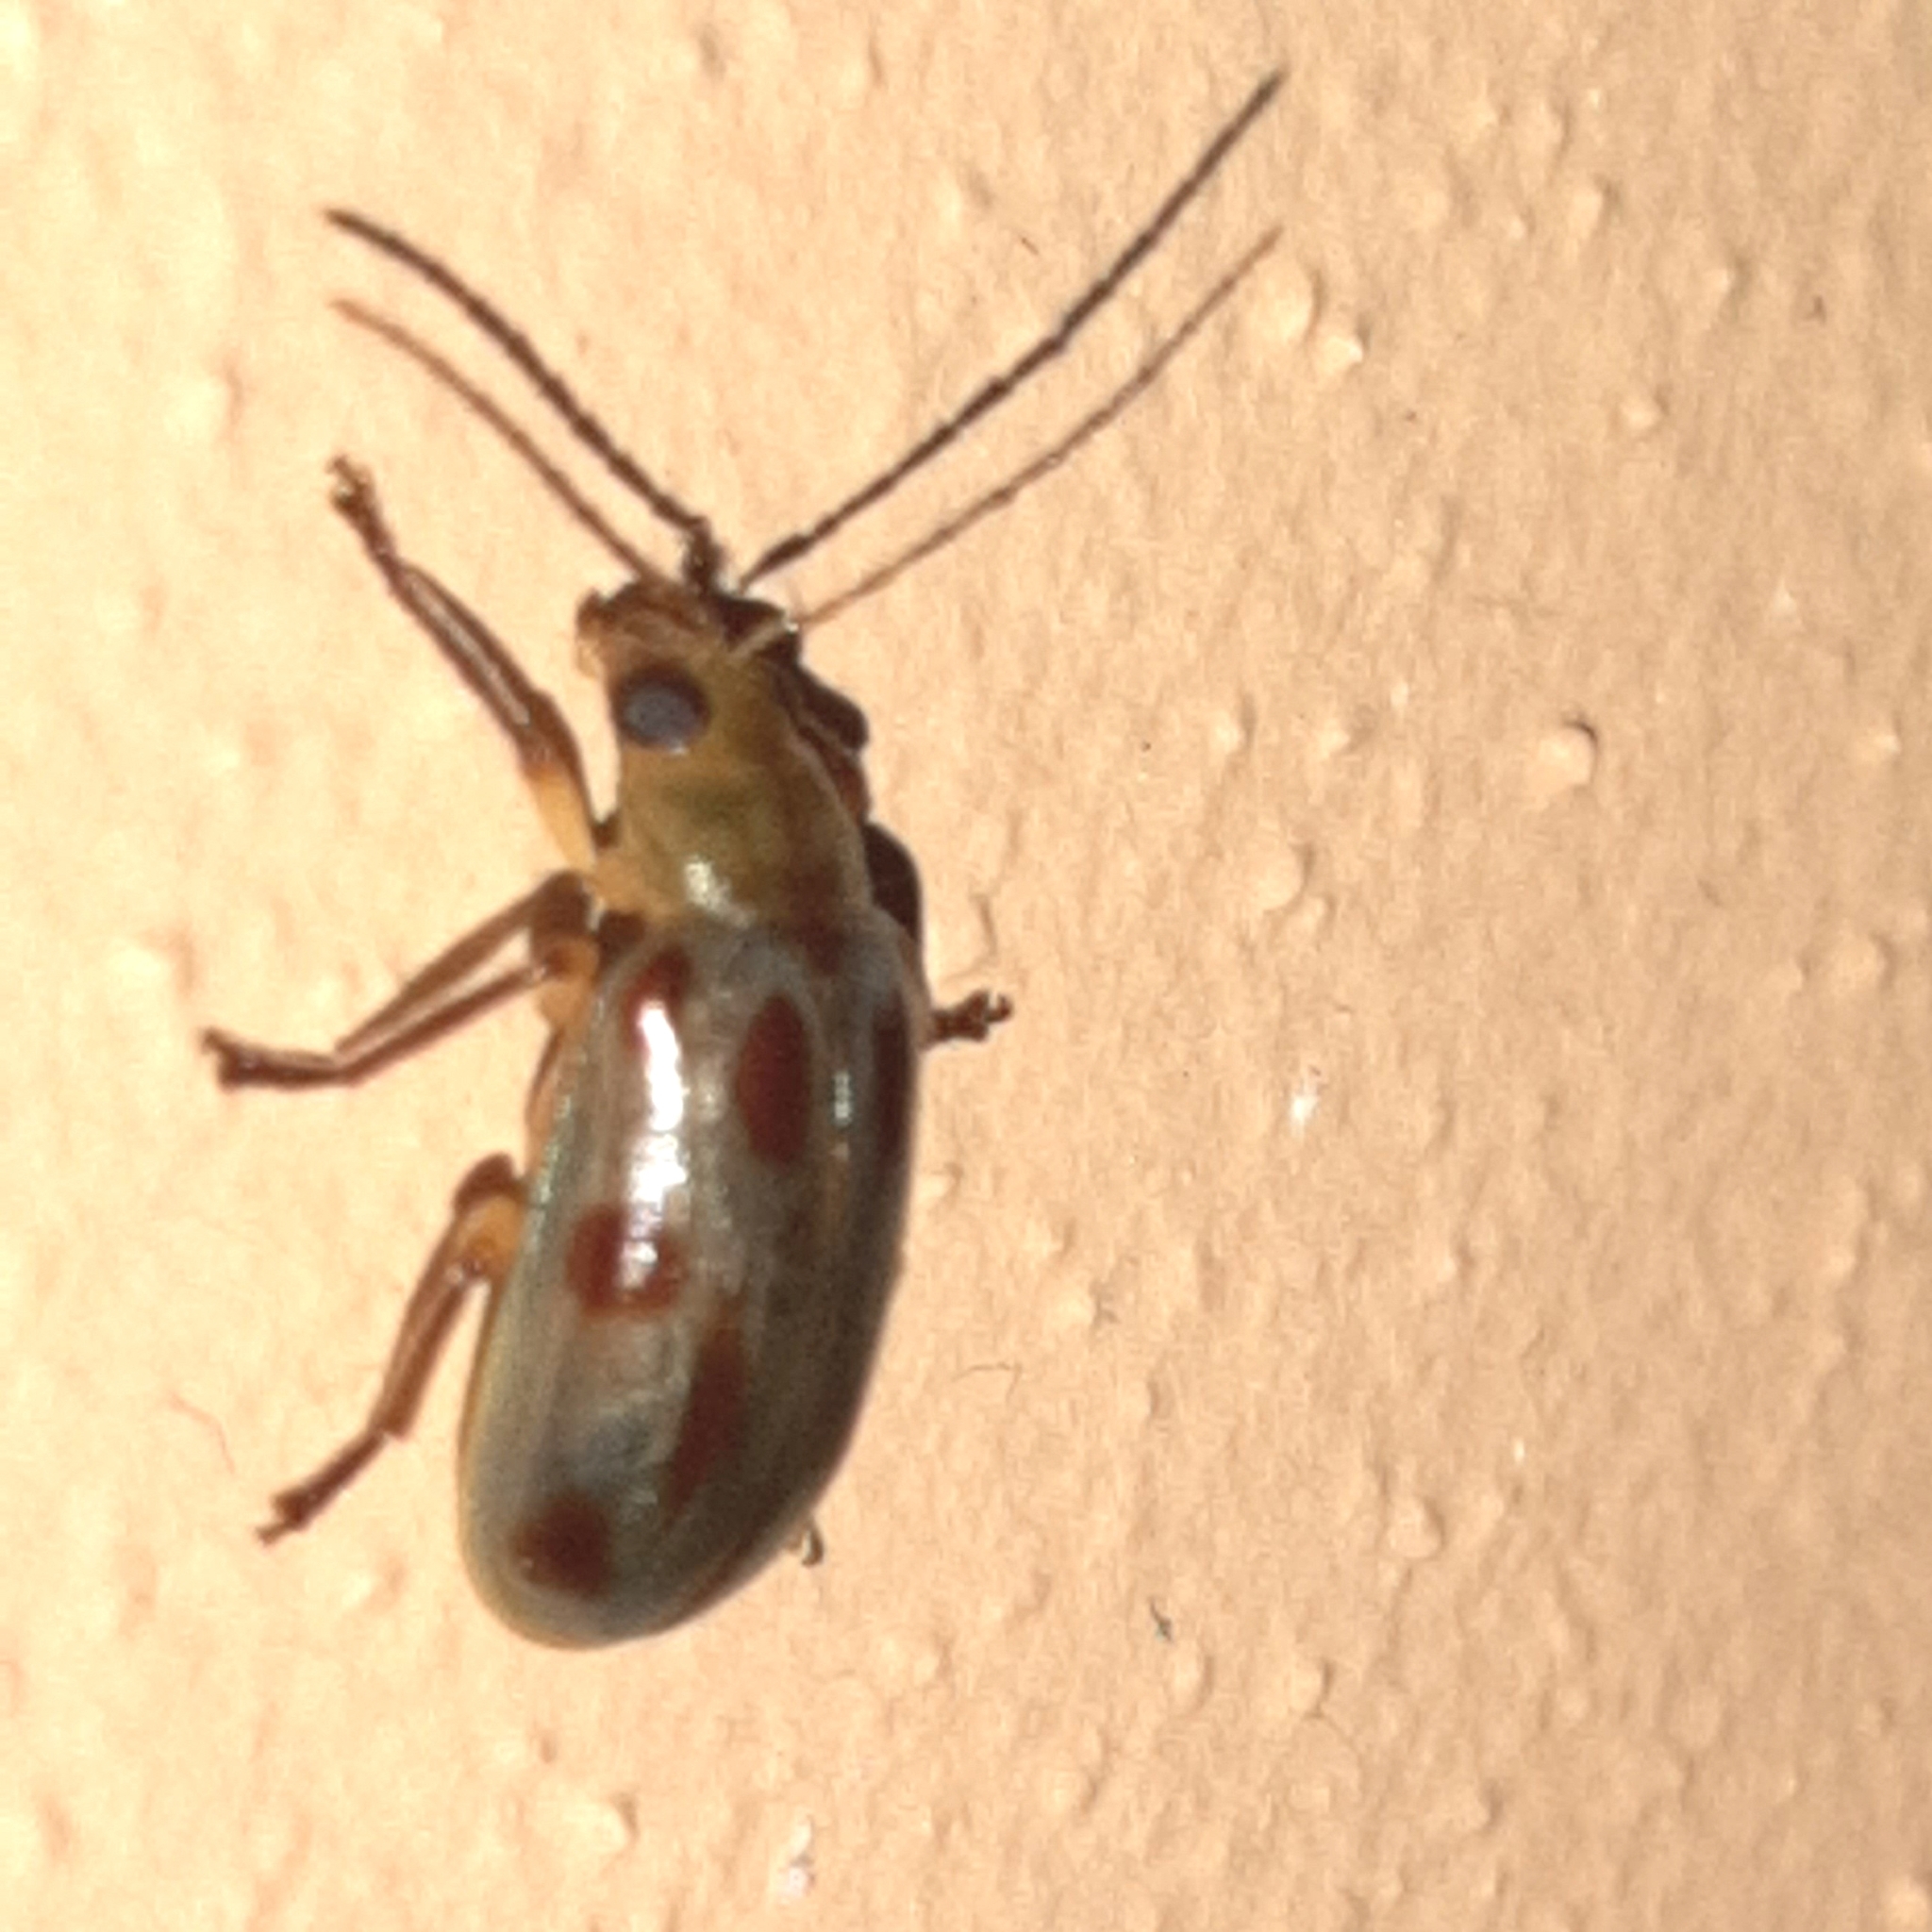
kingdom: Animalia
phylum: Arthropoda
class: Insecta
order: Coleoptera
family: Chrysomelidae
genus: Exora
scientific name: Exora obsoleta
